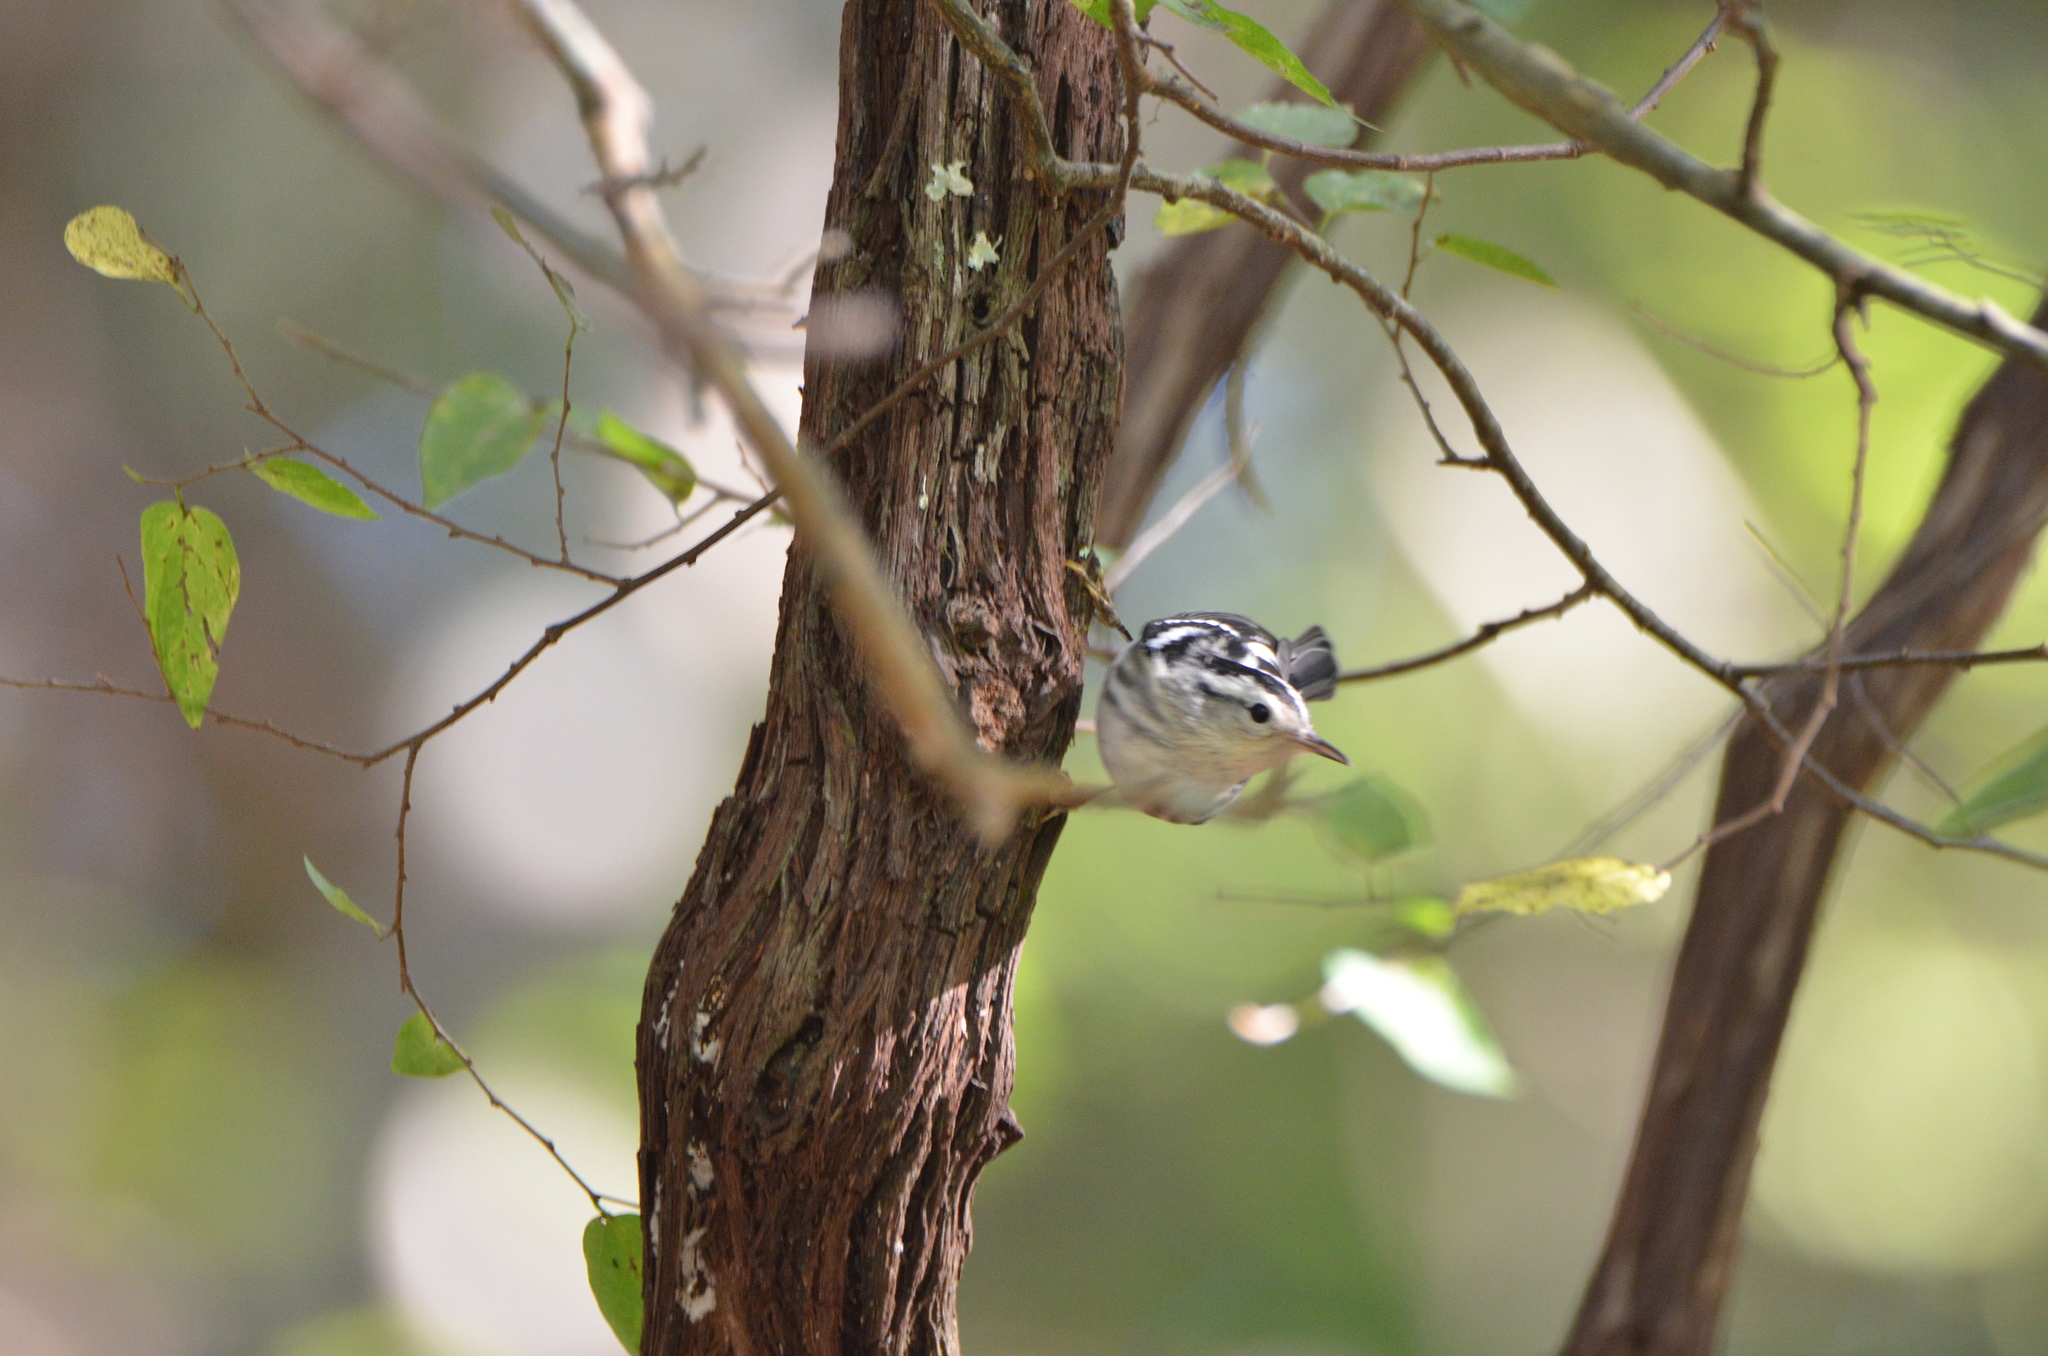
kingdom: Animalia
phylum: Chordata
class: Aves
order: Passeriformes
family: Parulidae
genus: Mniotilta
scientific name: Mniotilta varia
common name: Black-and-white warbler
